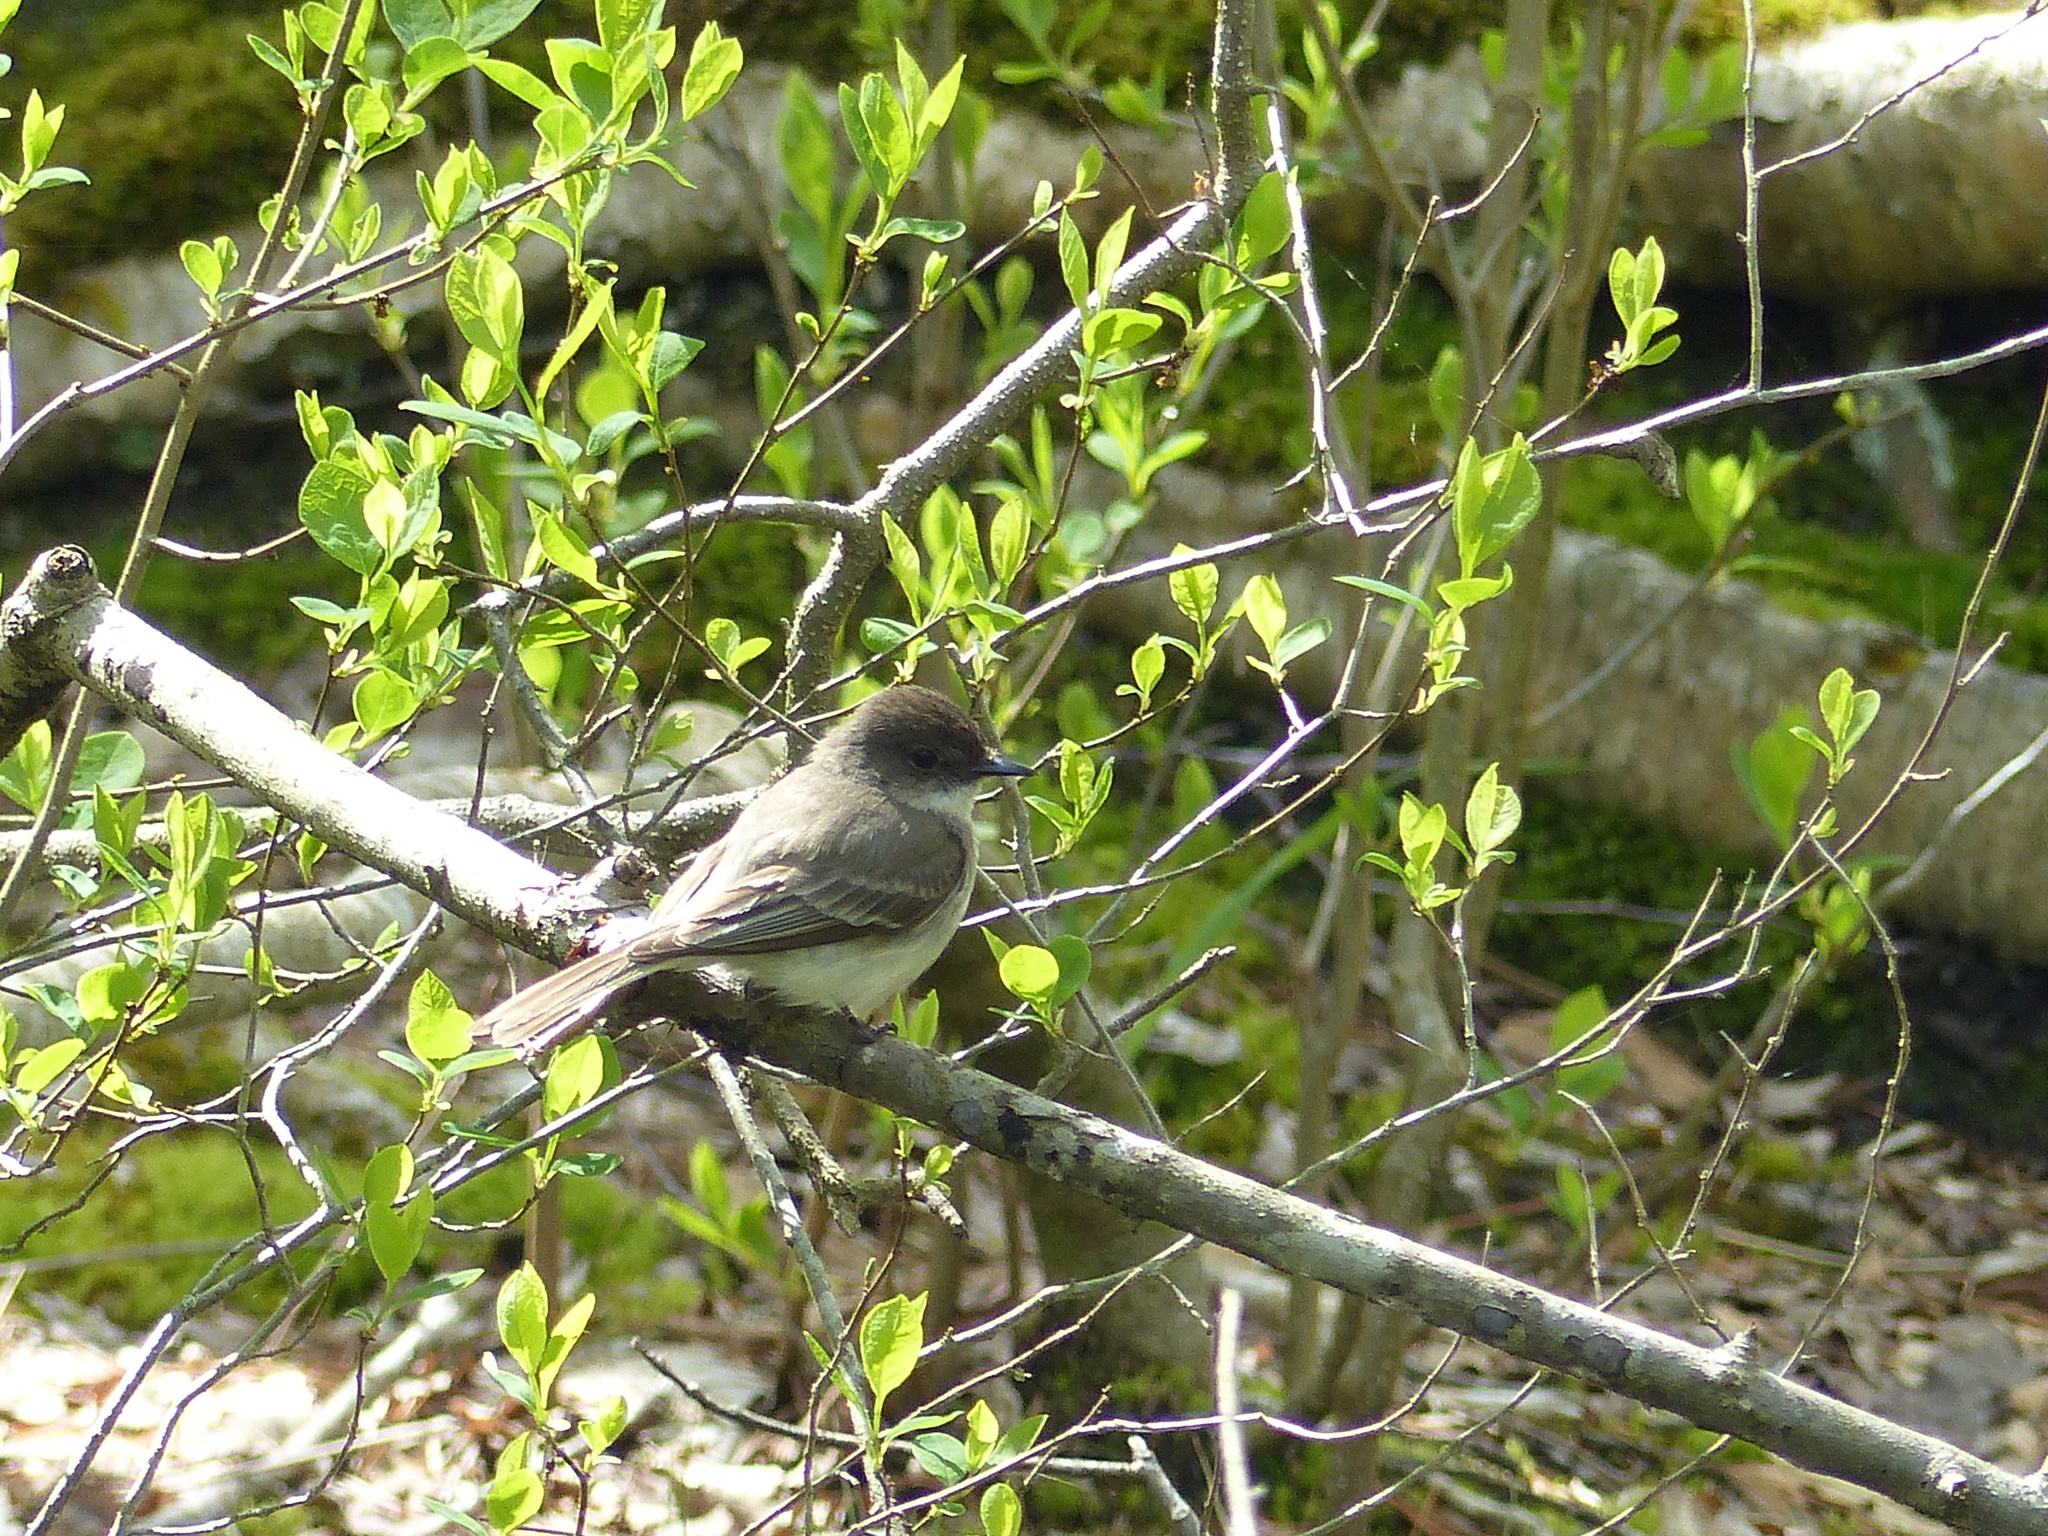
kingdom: Animalia
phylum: Chordata
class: Aves
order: Passeriformes
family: Tyrannidae
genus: Sayornis
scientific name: Sayornis phoebe
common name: Eastern phoebe
